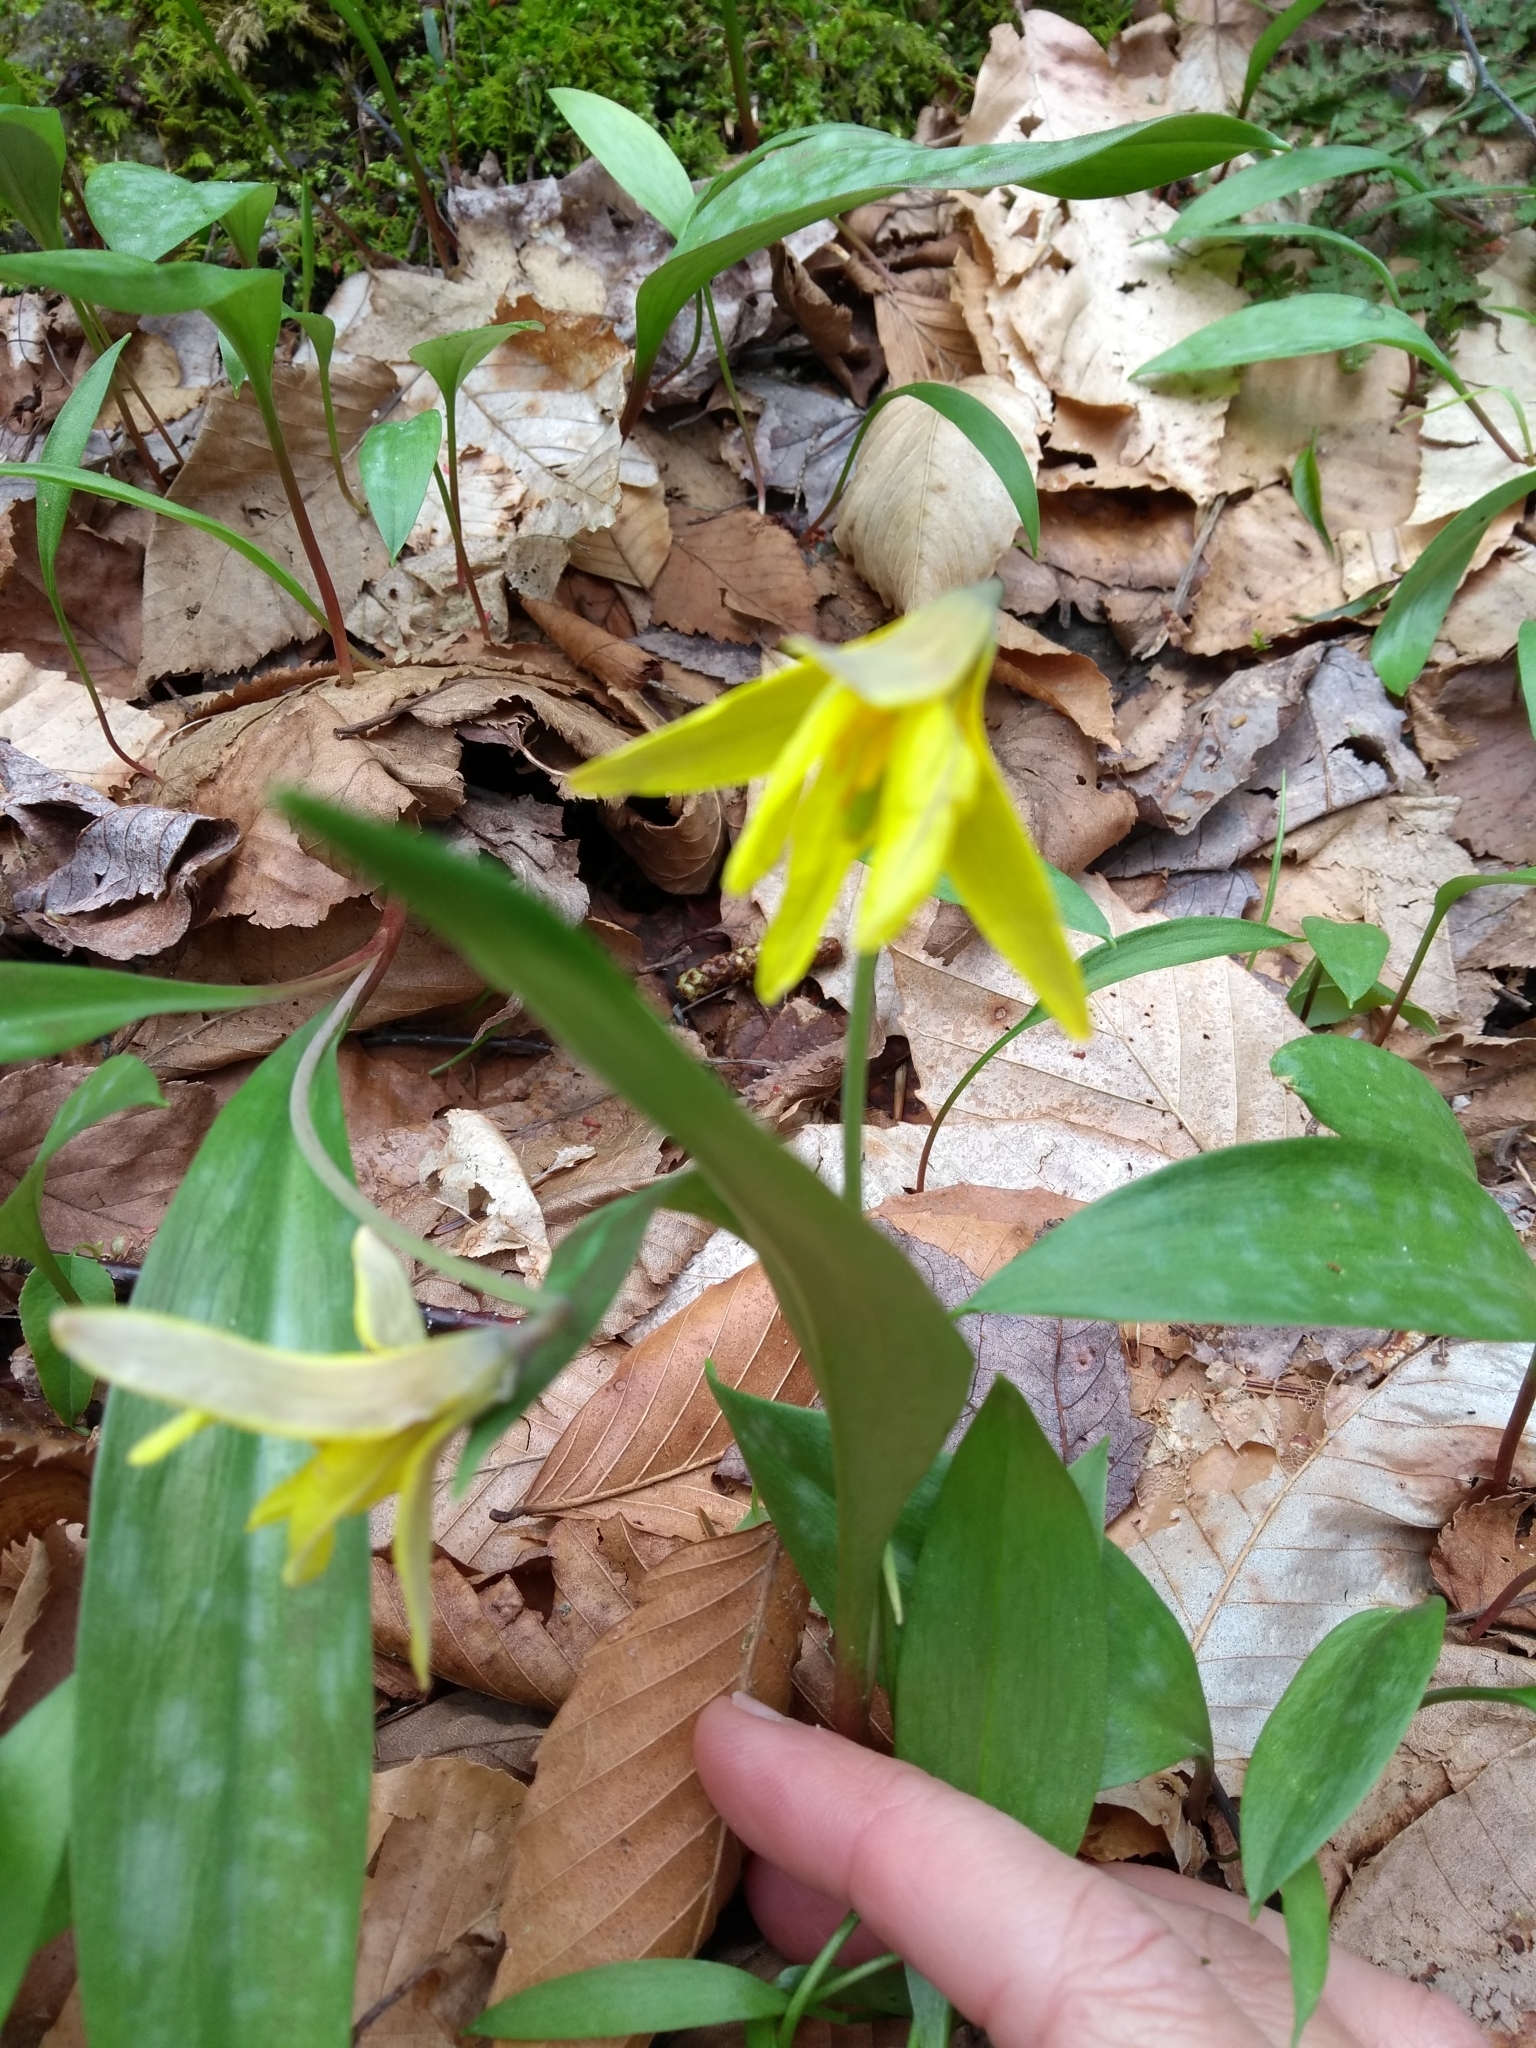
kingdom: Plantae
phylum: Tracheophyta
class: Liliopsida
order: Liliales
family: Liliaceae
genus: Erythronium
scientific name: Erythronium americanum
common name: Yellow adder's-tongue
